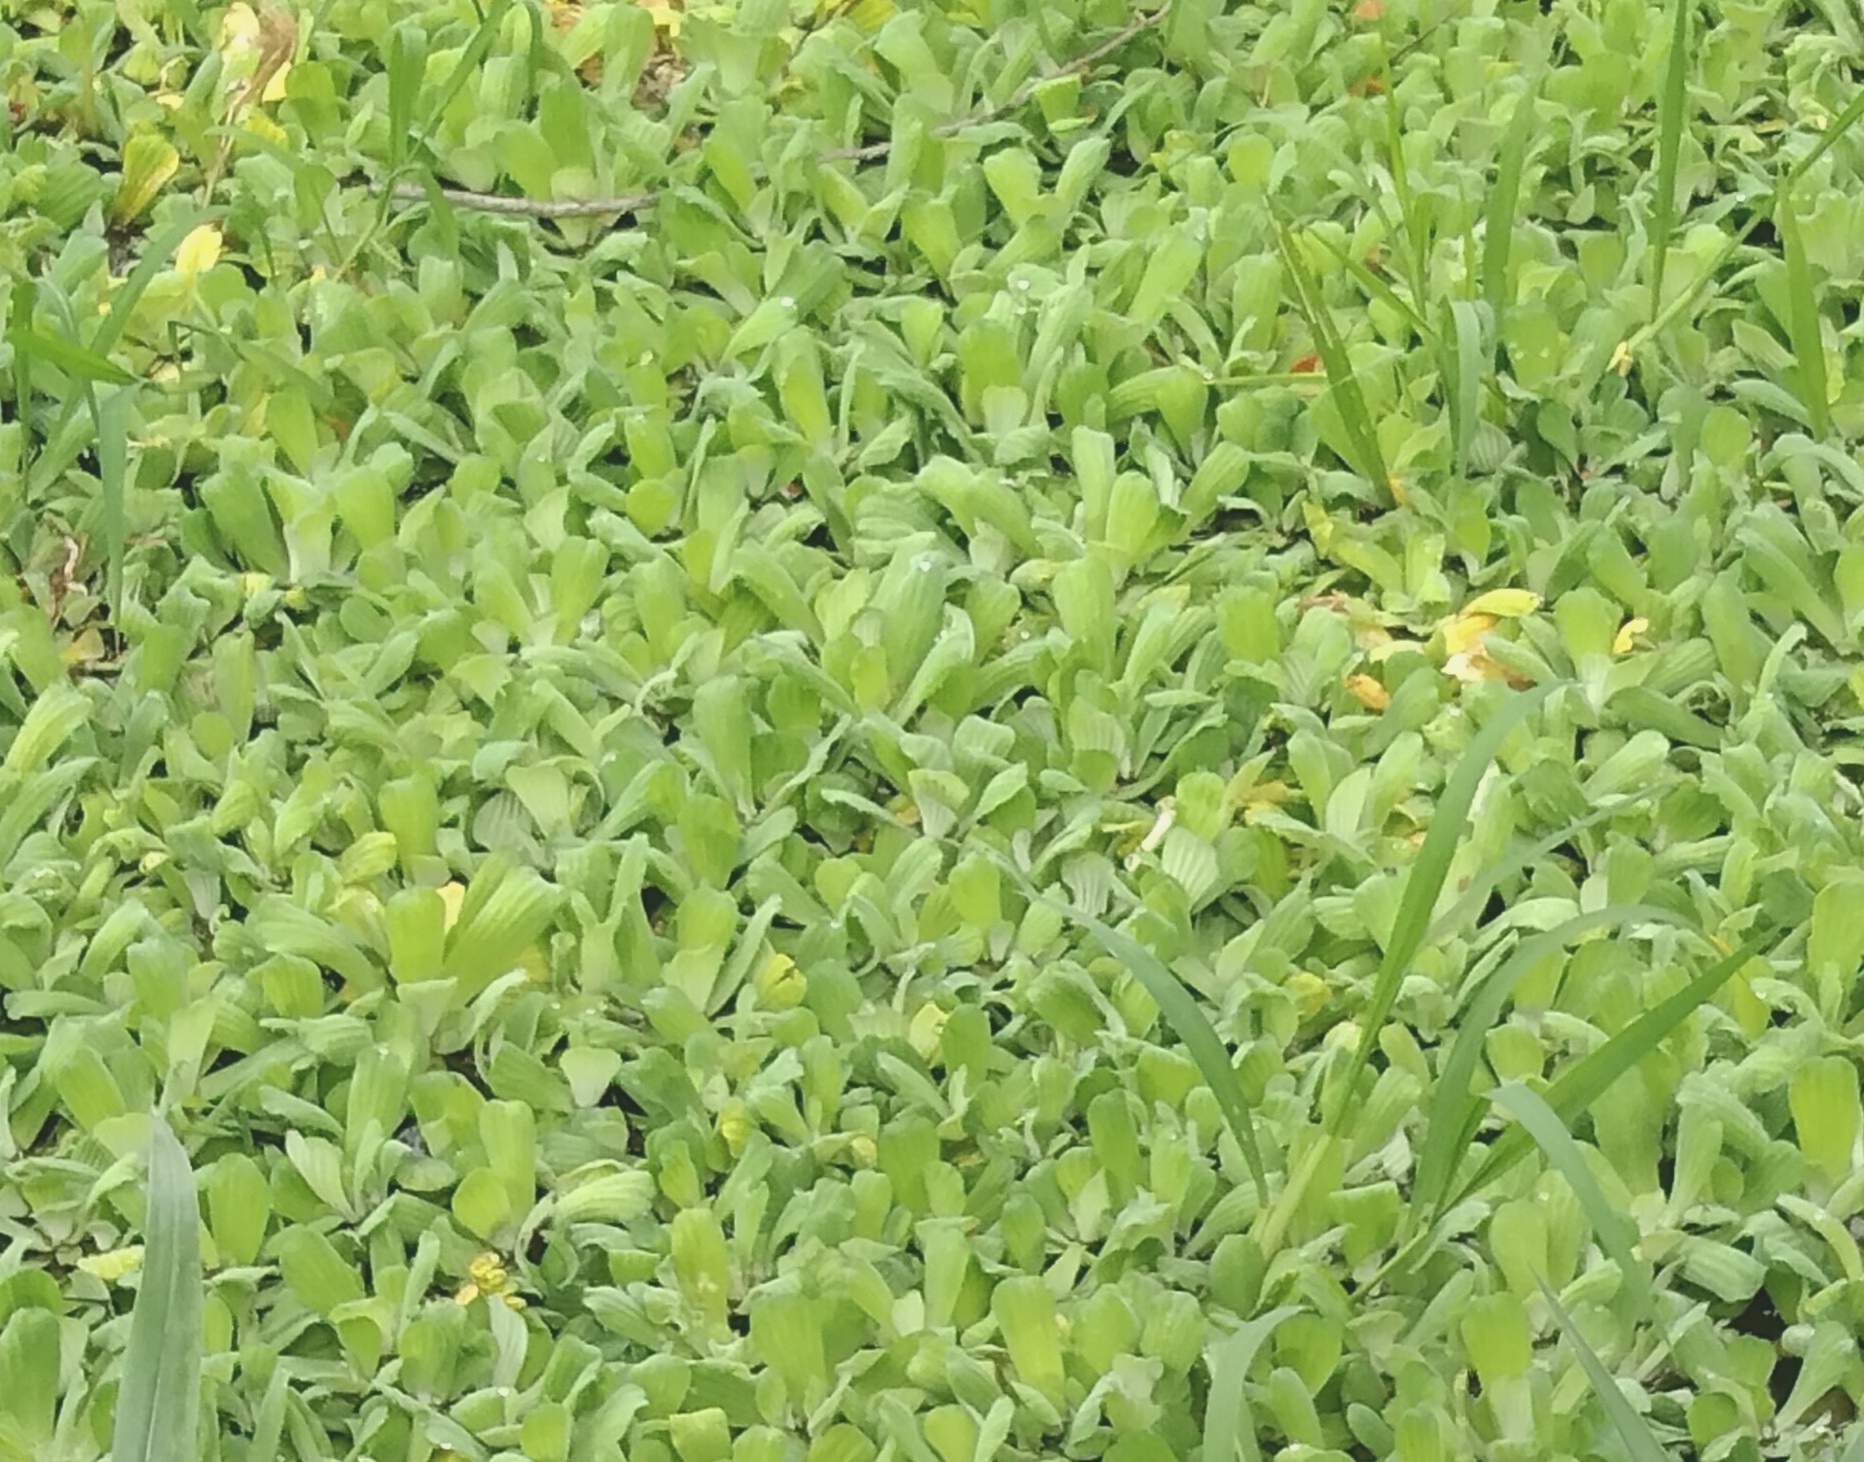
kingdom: Plantae
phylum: Tracheophyta
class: Liliopsida
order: Alismatales
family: Araceae
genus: Pistia
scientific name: Pistia stratiotes
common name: Water lettuce
